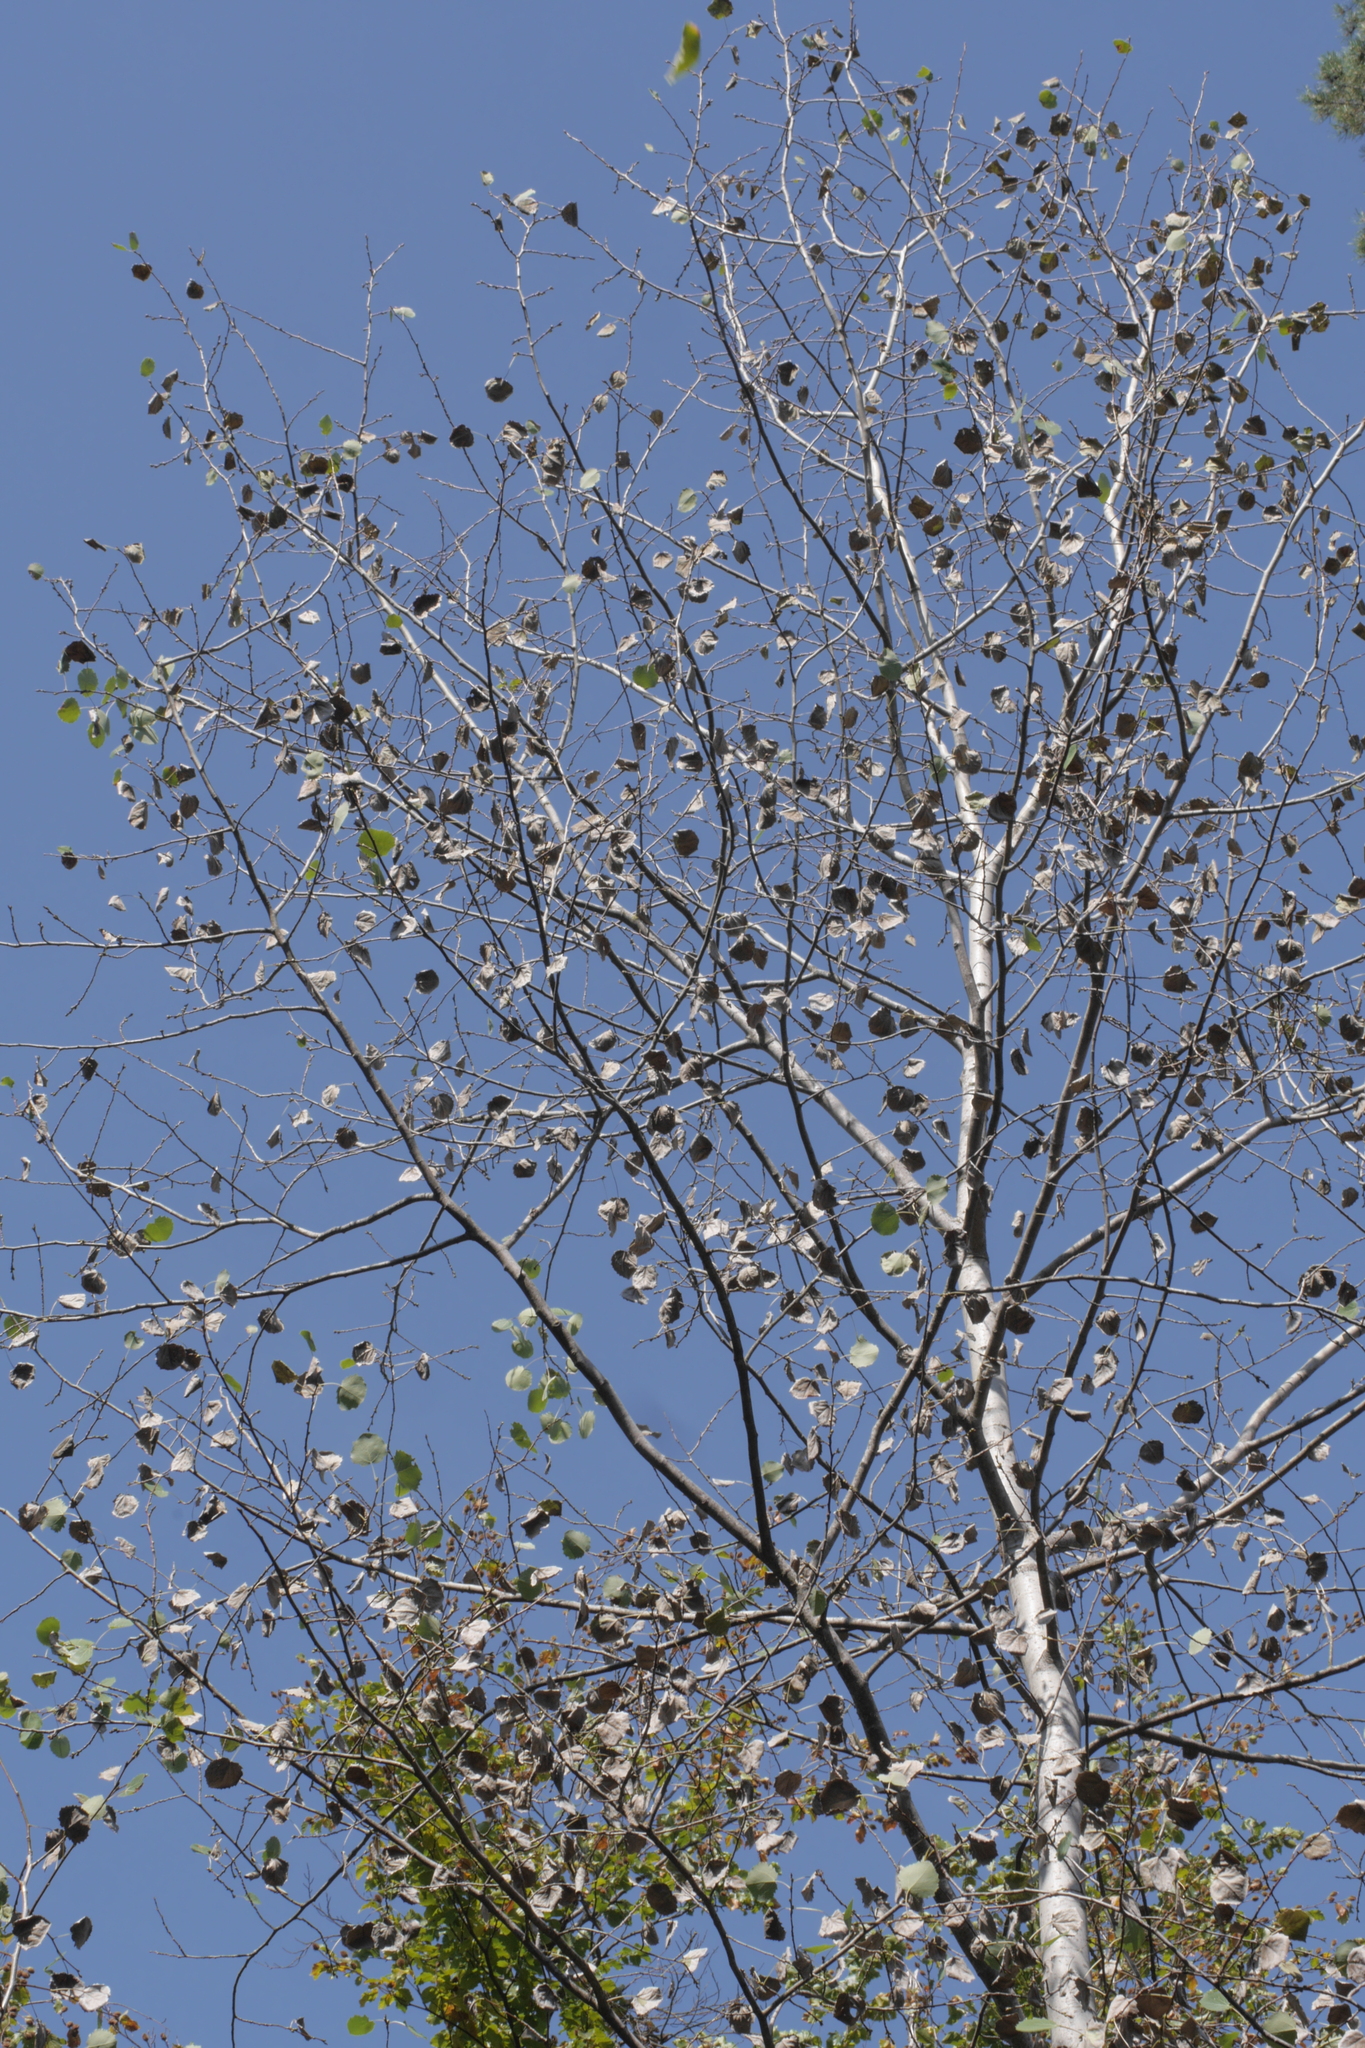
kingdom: Plantae
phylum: Tracheophyta
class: Magnoliopsida
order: Malpighiales
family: Salicaceae
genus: Populus
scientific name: Populus tremula
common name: European aspen
